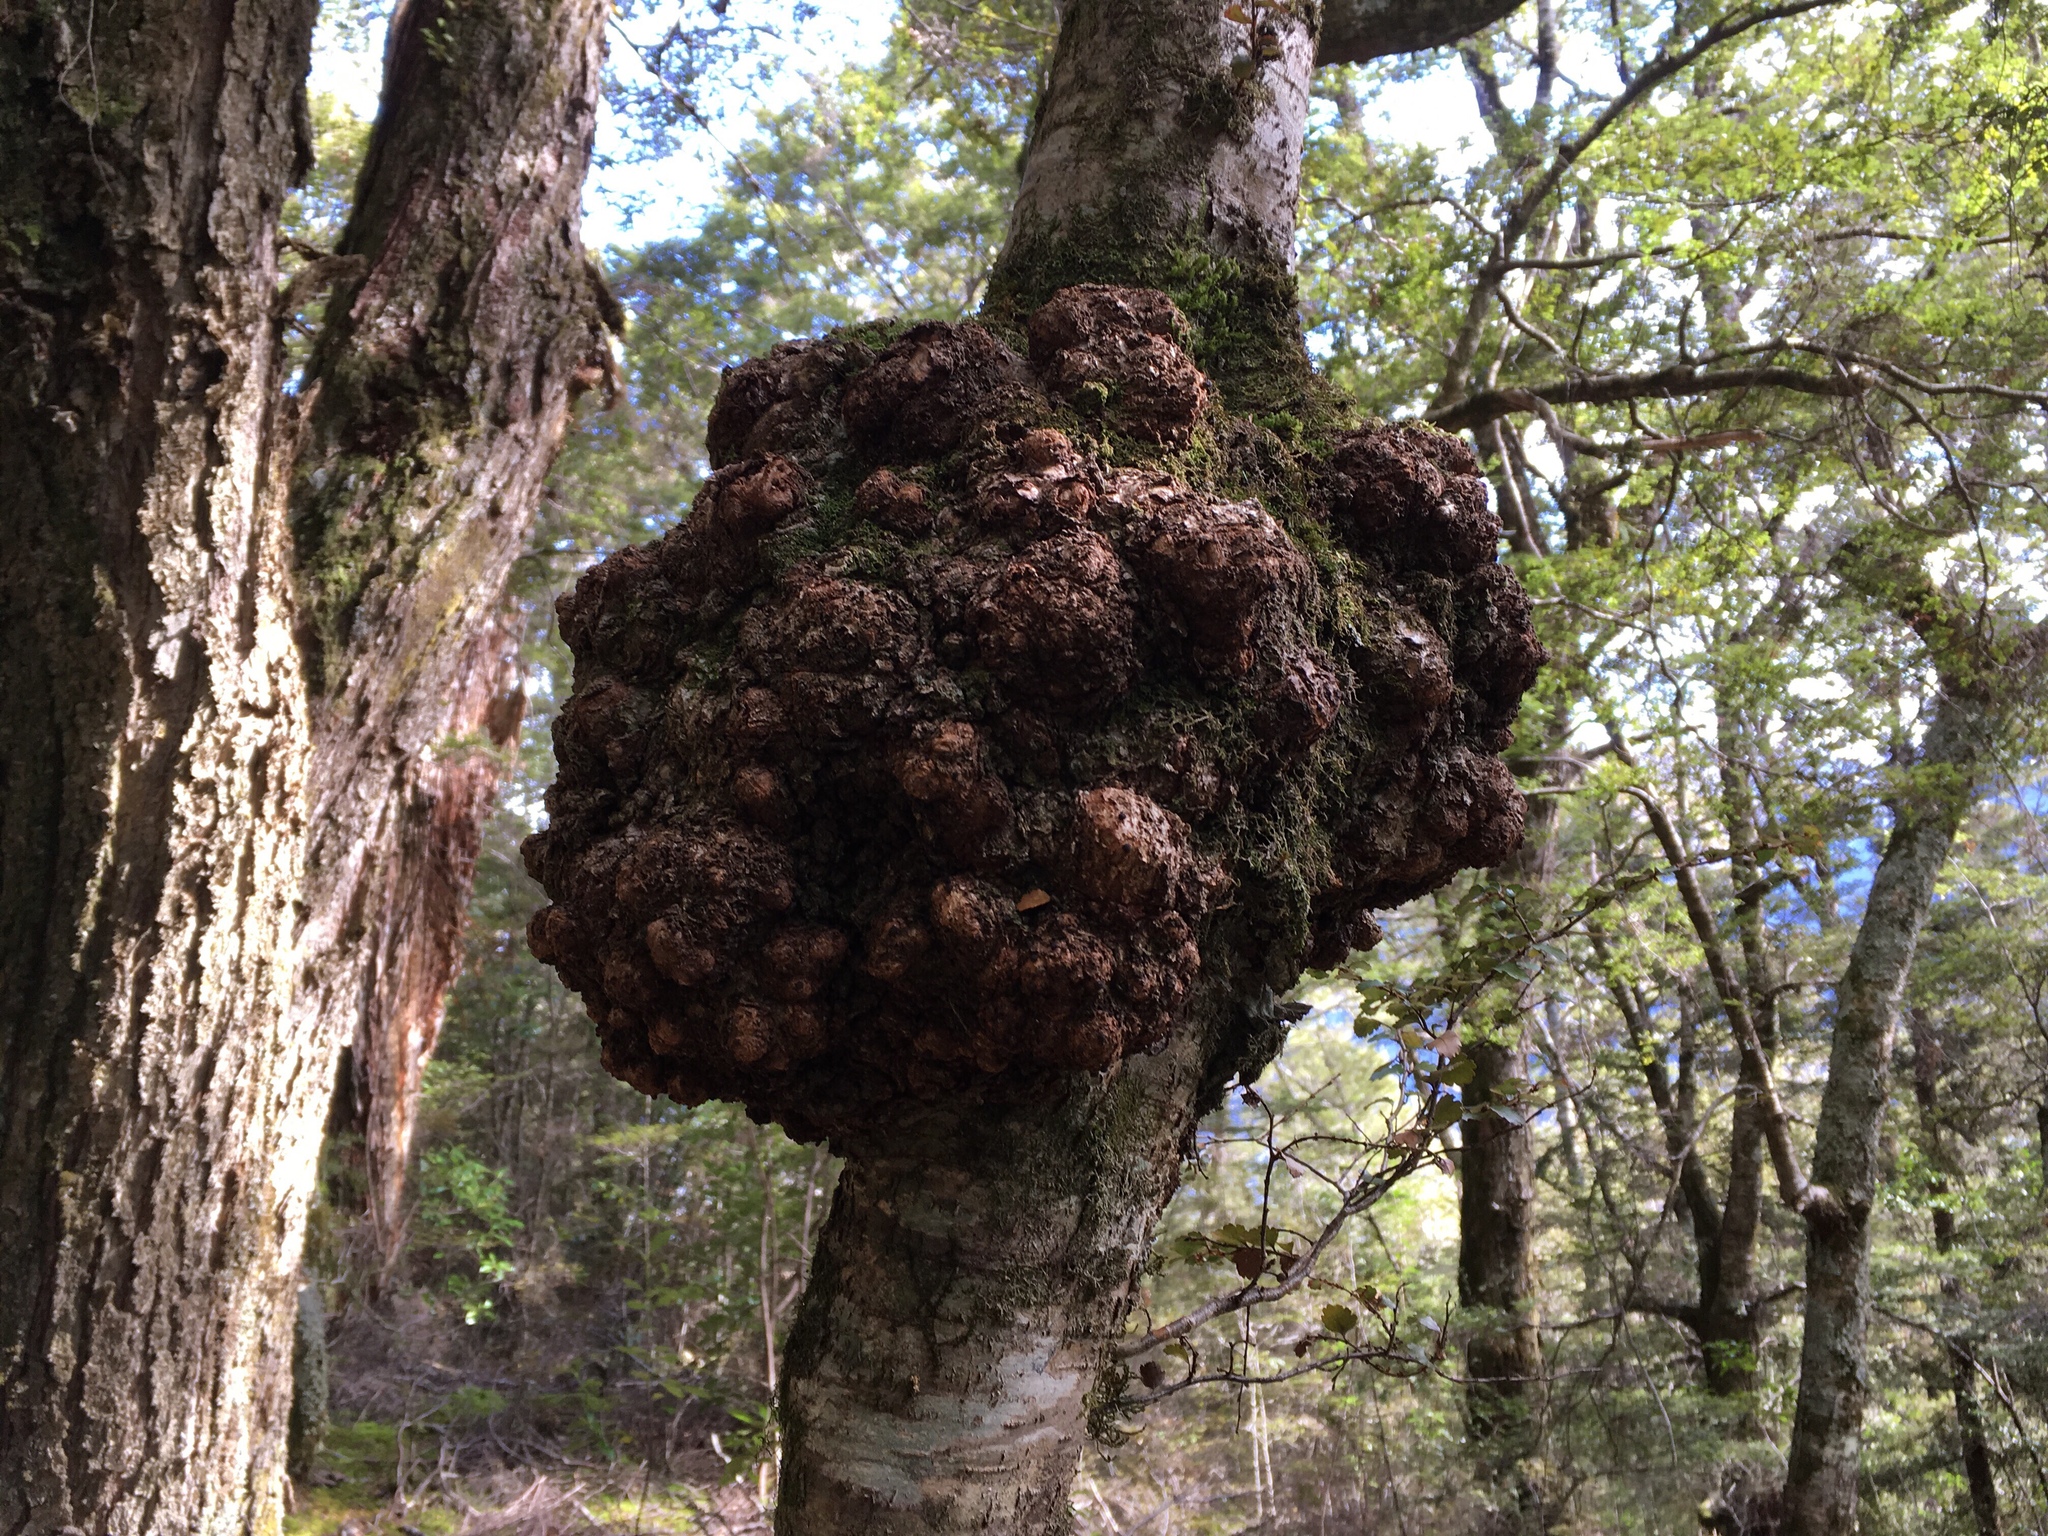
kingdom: Fungi
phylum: Ascomycota
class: Leotiomycetes
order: Cyttariales
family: Cyttariaceae
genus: Cyttaria
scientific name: Cyttaria gunnii
